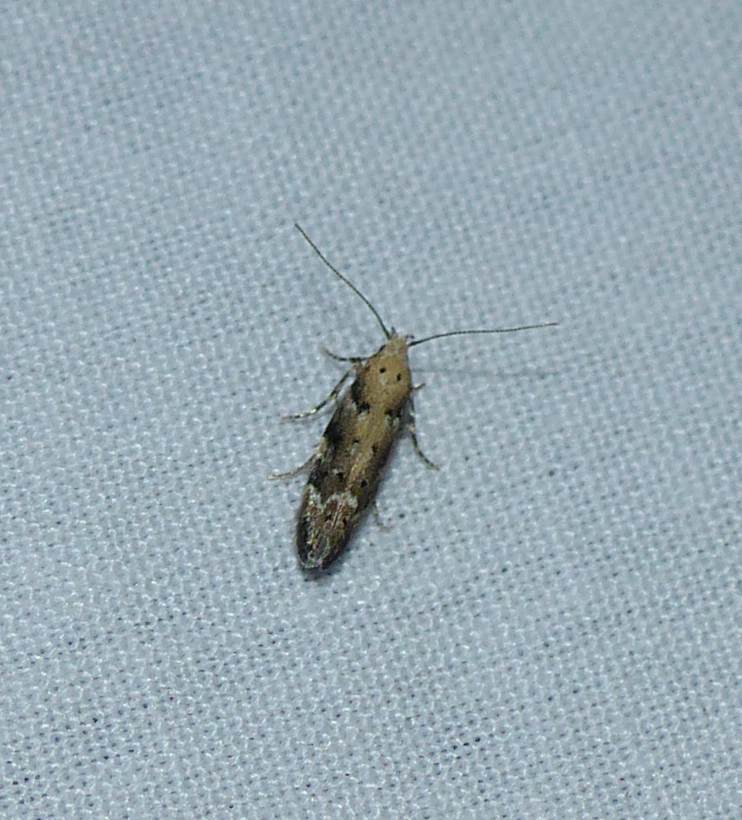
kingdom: Animalia
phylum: Arthropoda
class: Insecta
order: Lepidoptera
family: Gelechiidae
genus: Coleotechnites
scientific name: Coleotechnites coniferella
